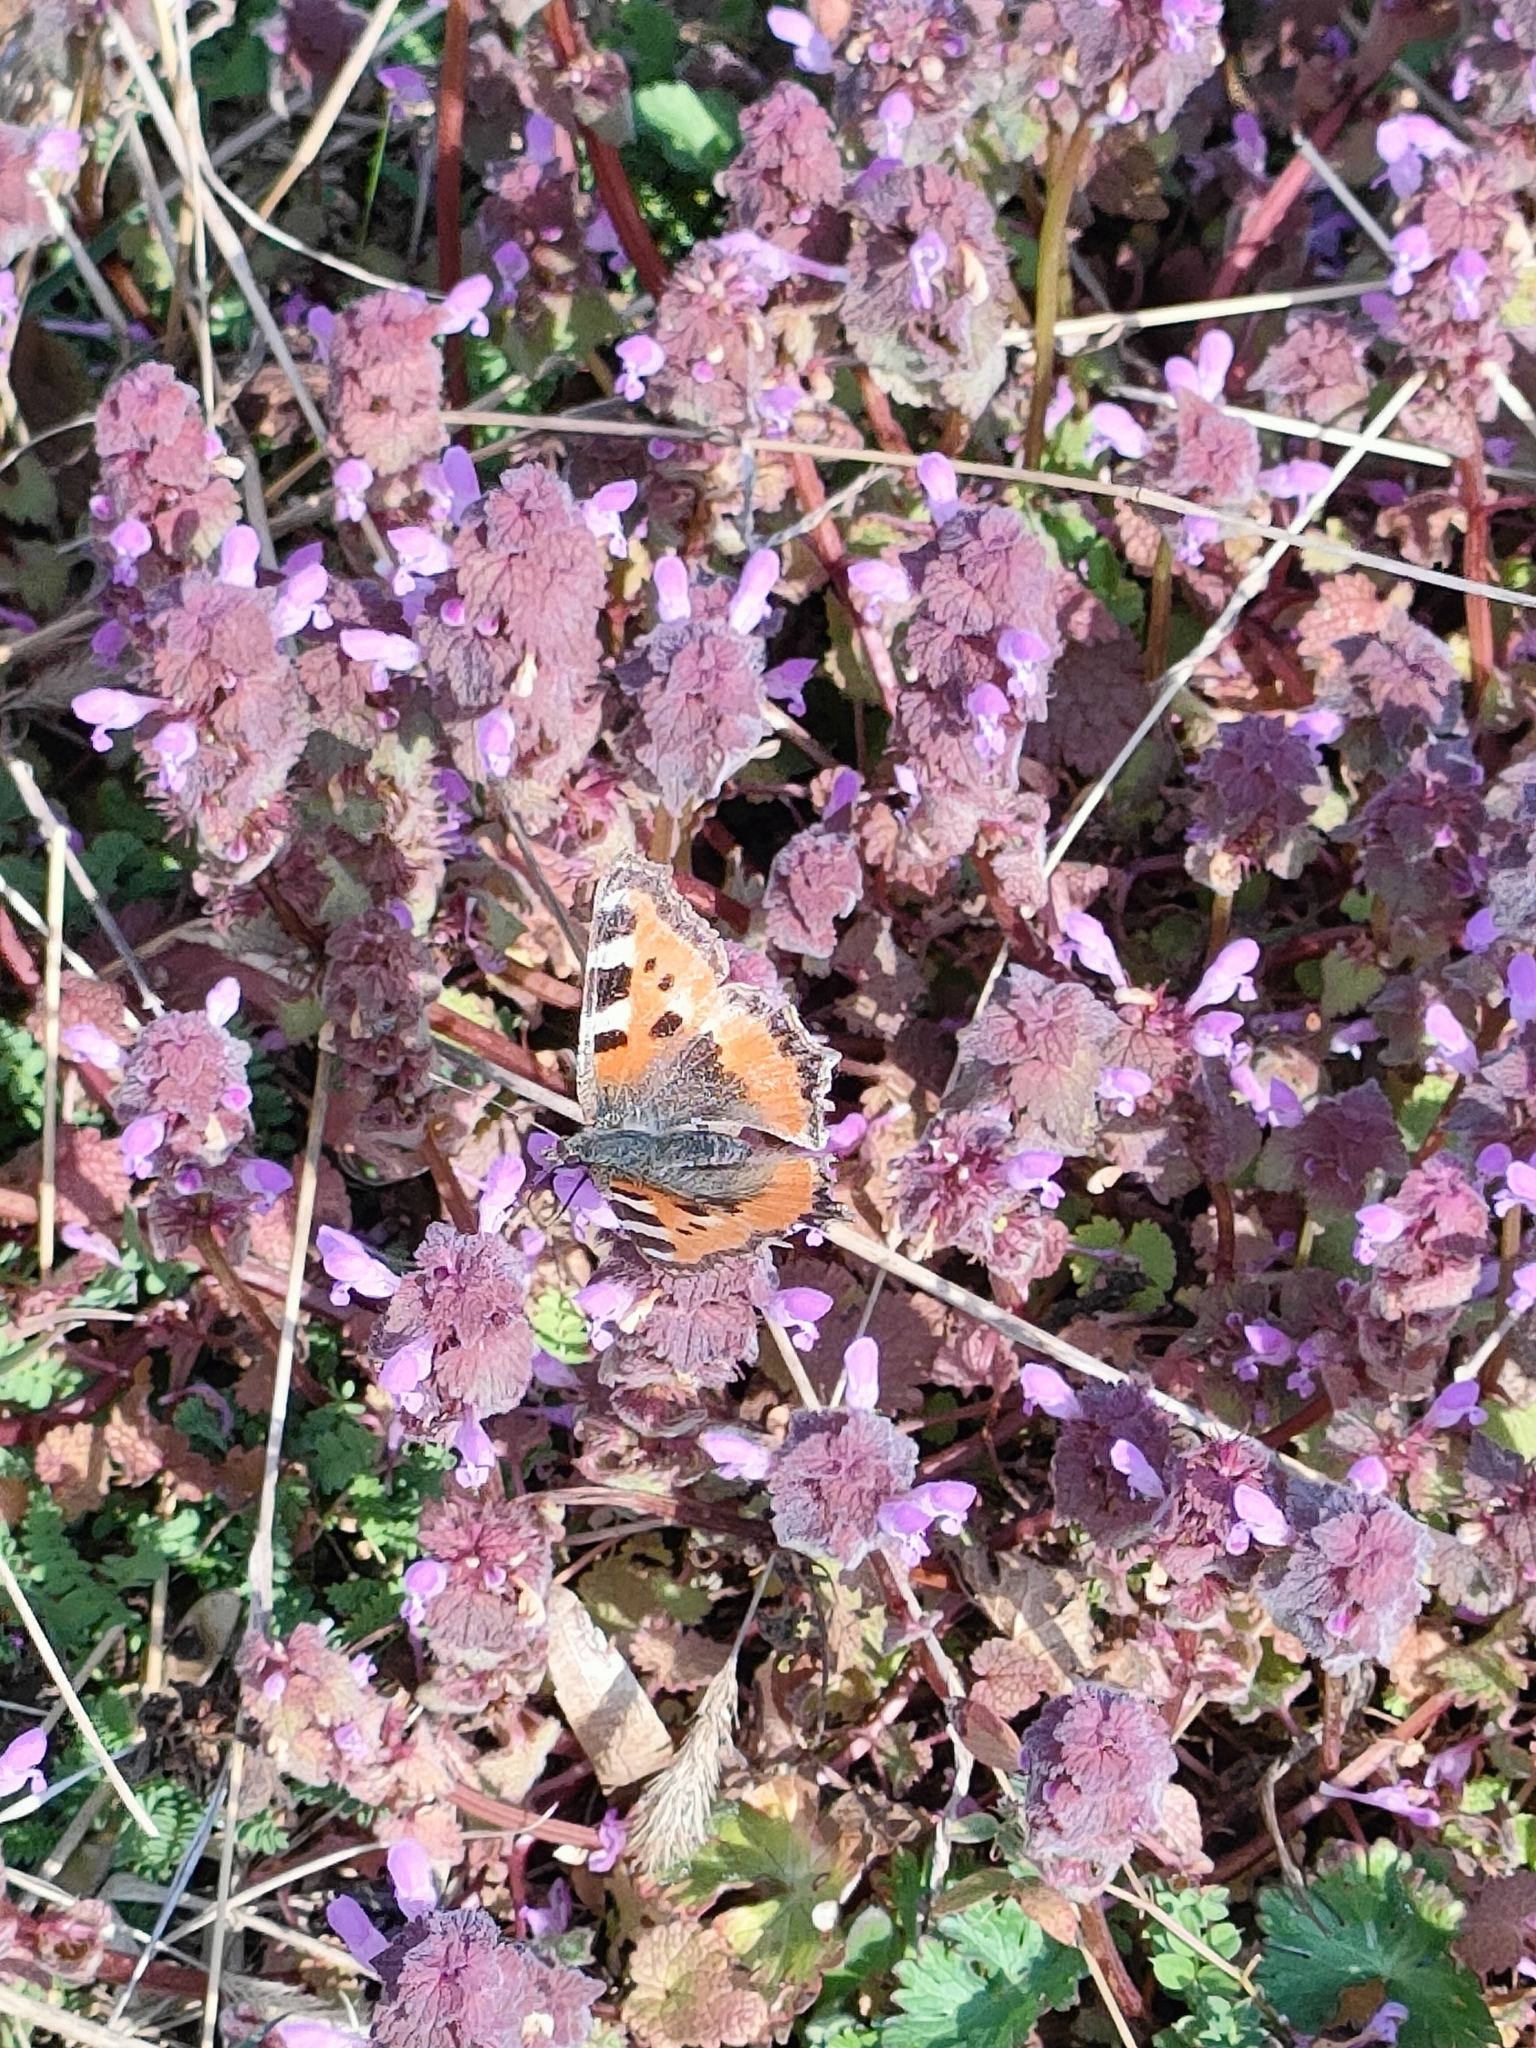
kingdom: Animalia
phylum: Arthropoda
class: Insecta
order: Lepidoptera
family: Nymphalidae
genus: Aglais
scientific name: Aglais urticae
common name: Small tortoiseshell
